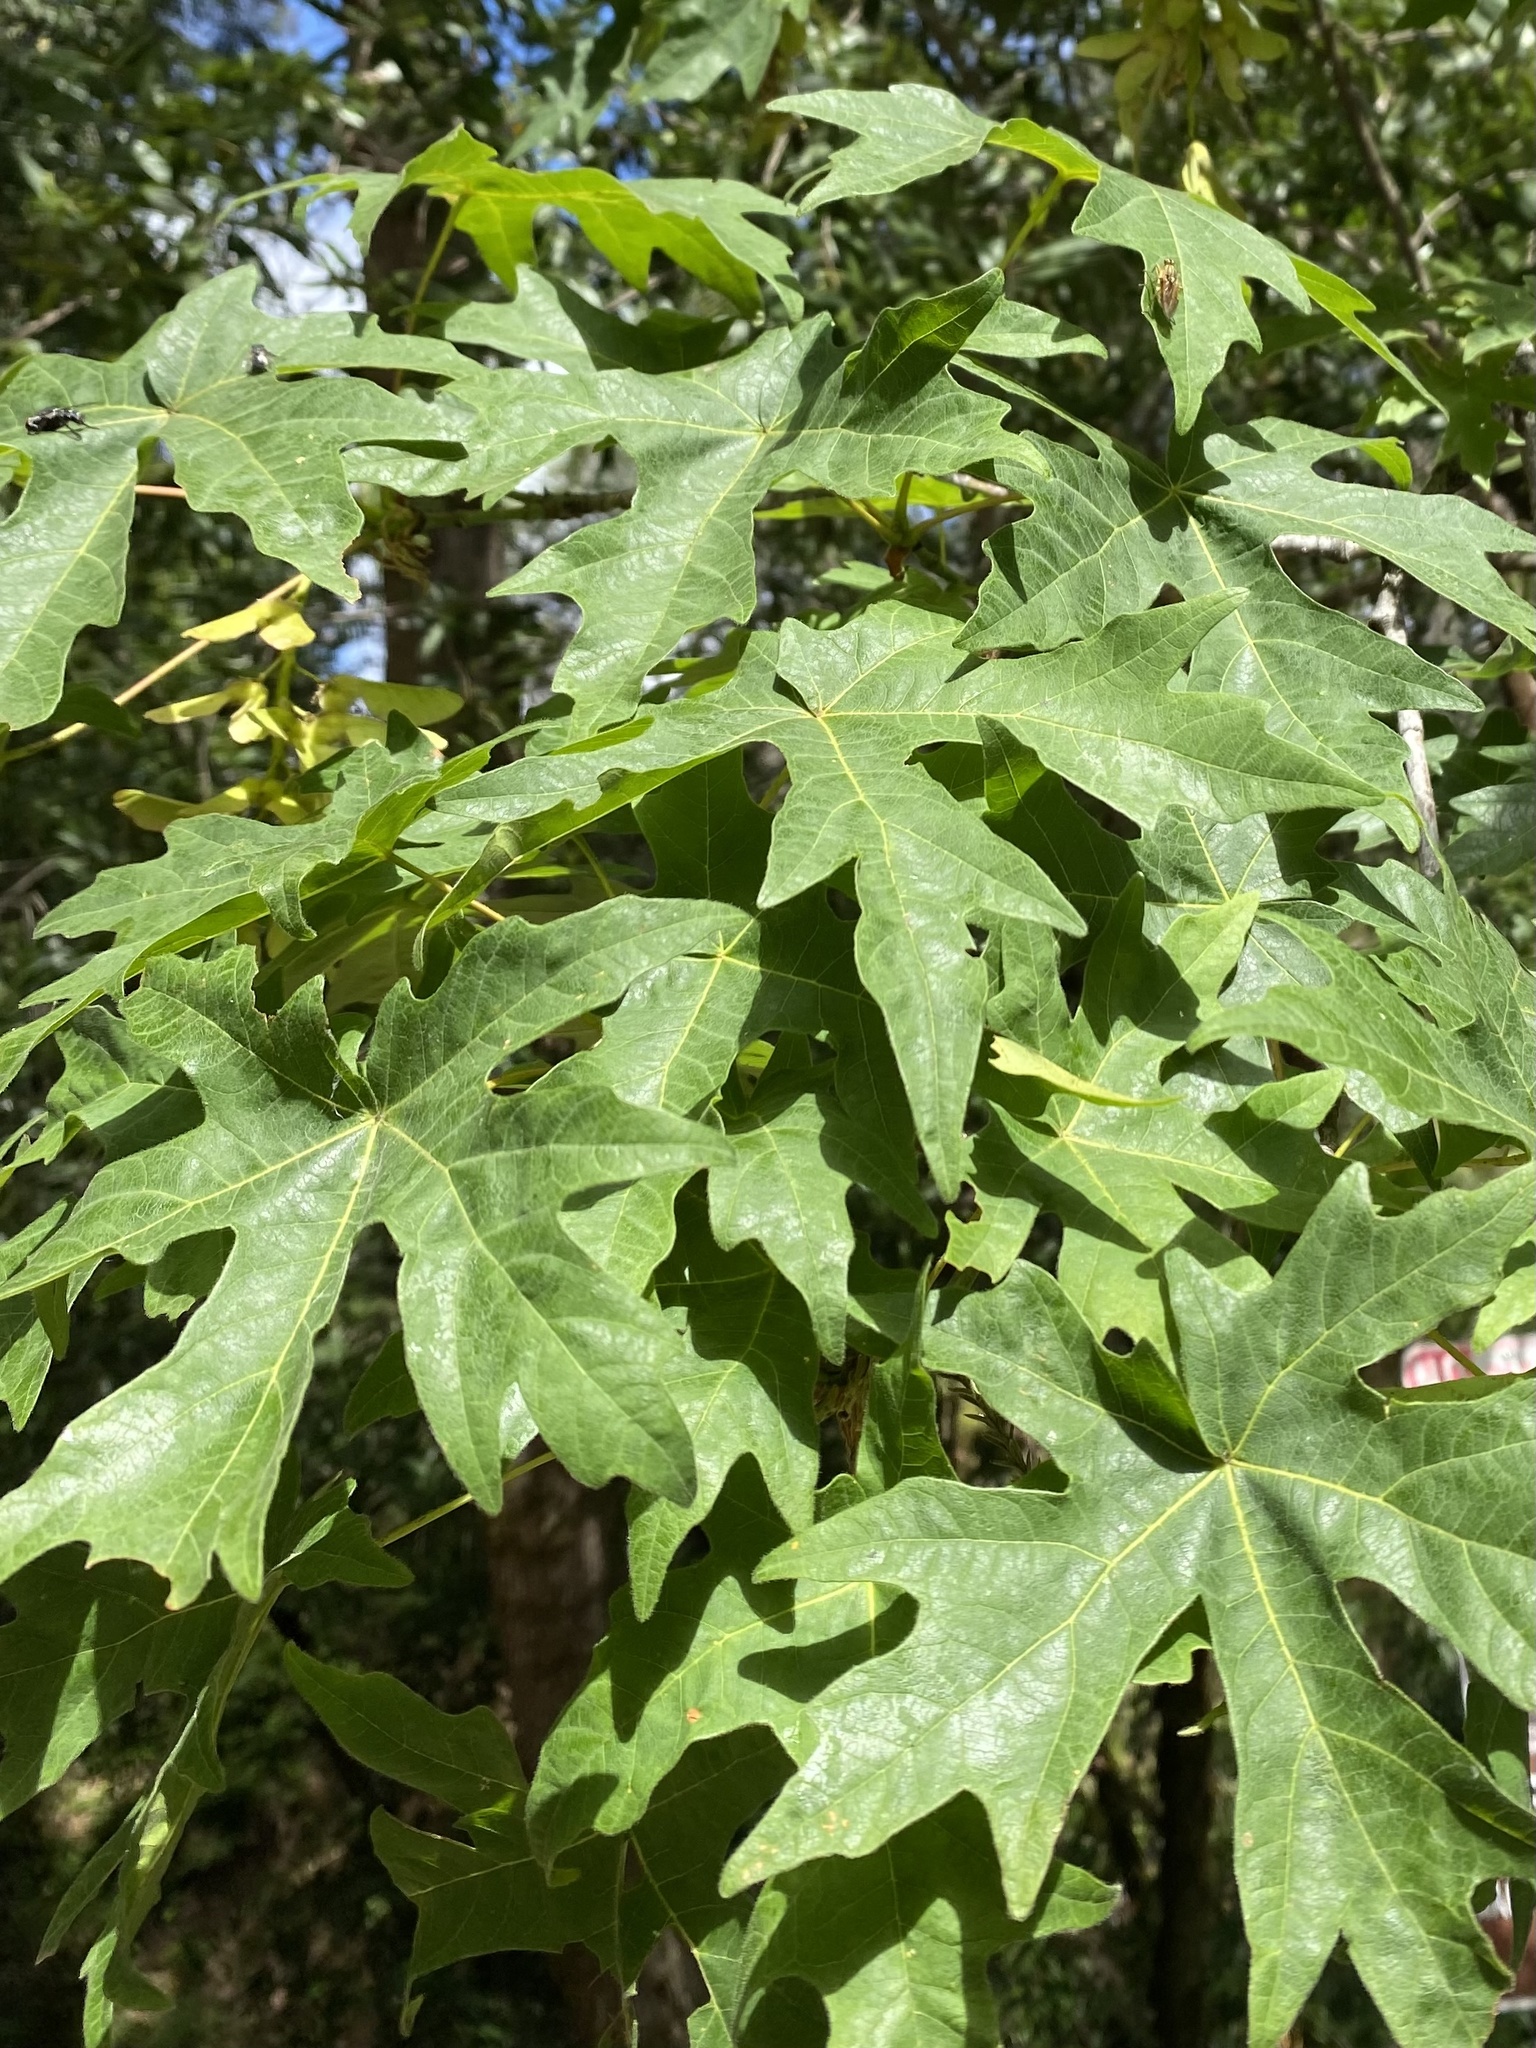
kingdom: Plantae
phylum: Tracheophyta
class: Magnoliopsida
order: Sapindales
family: Sapindaceae
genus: Acer
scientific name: Acer macrophyllum
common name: Oregon maple
